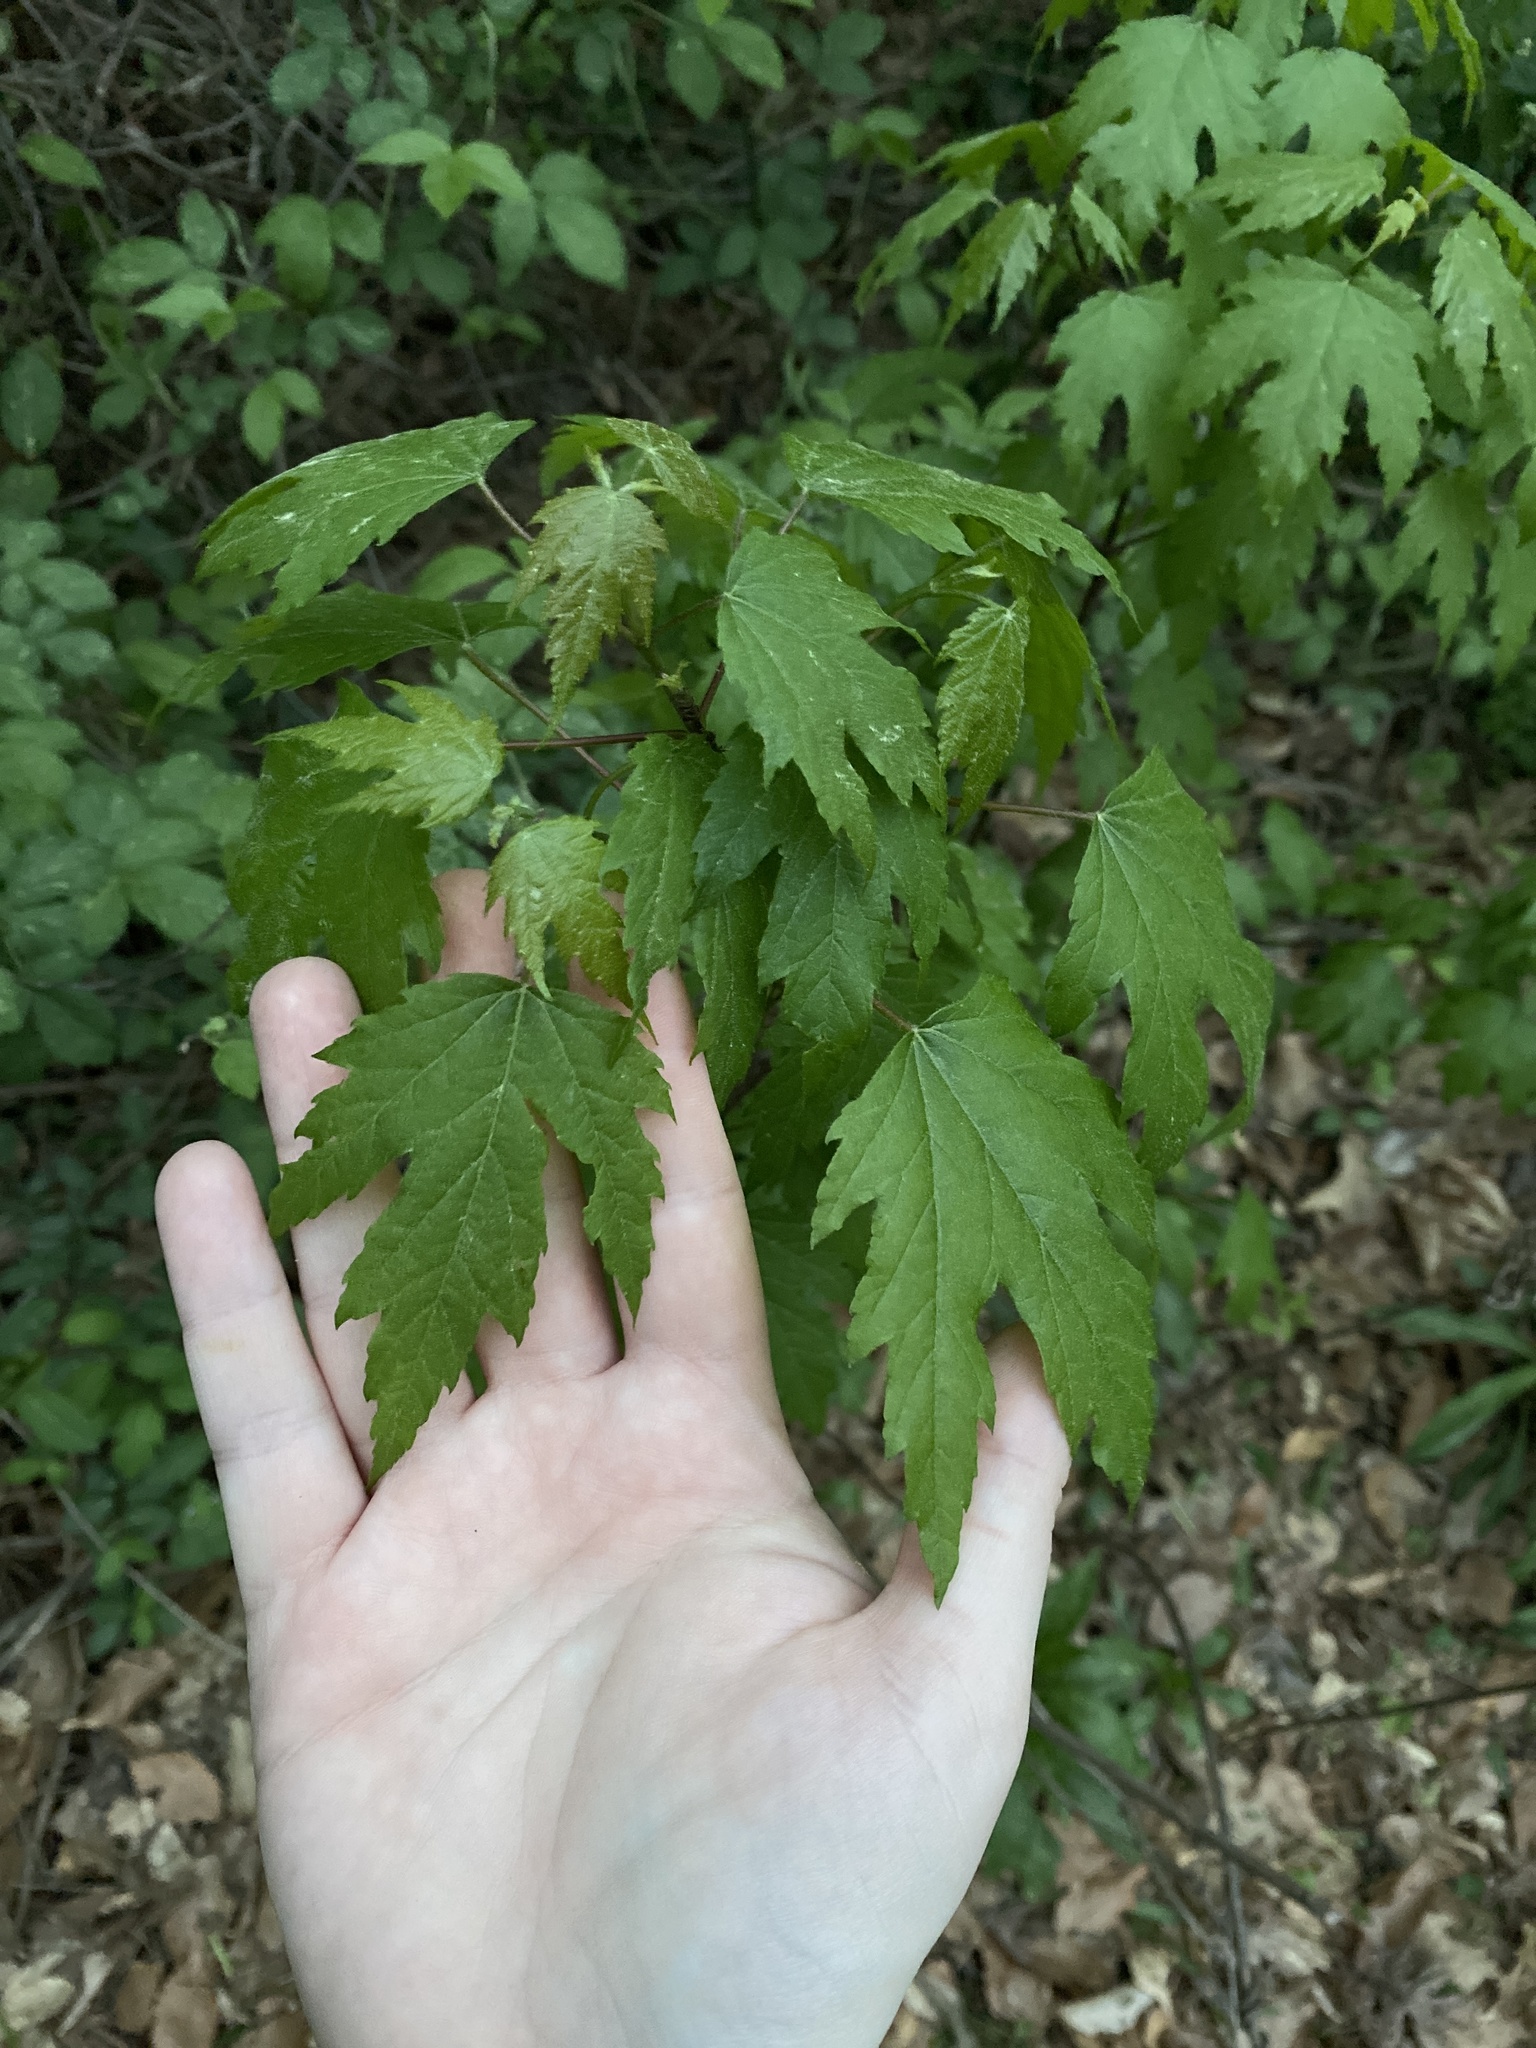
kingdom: Plantae
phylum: Tracheophyta
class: Magnoliopsida
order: Sapindales
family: Sapindaceae
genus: Acer
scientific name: Acer saccharinum
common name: Silver maple
